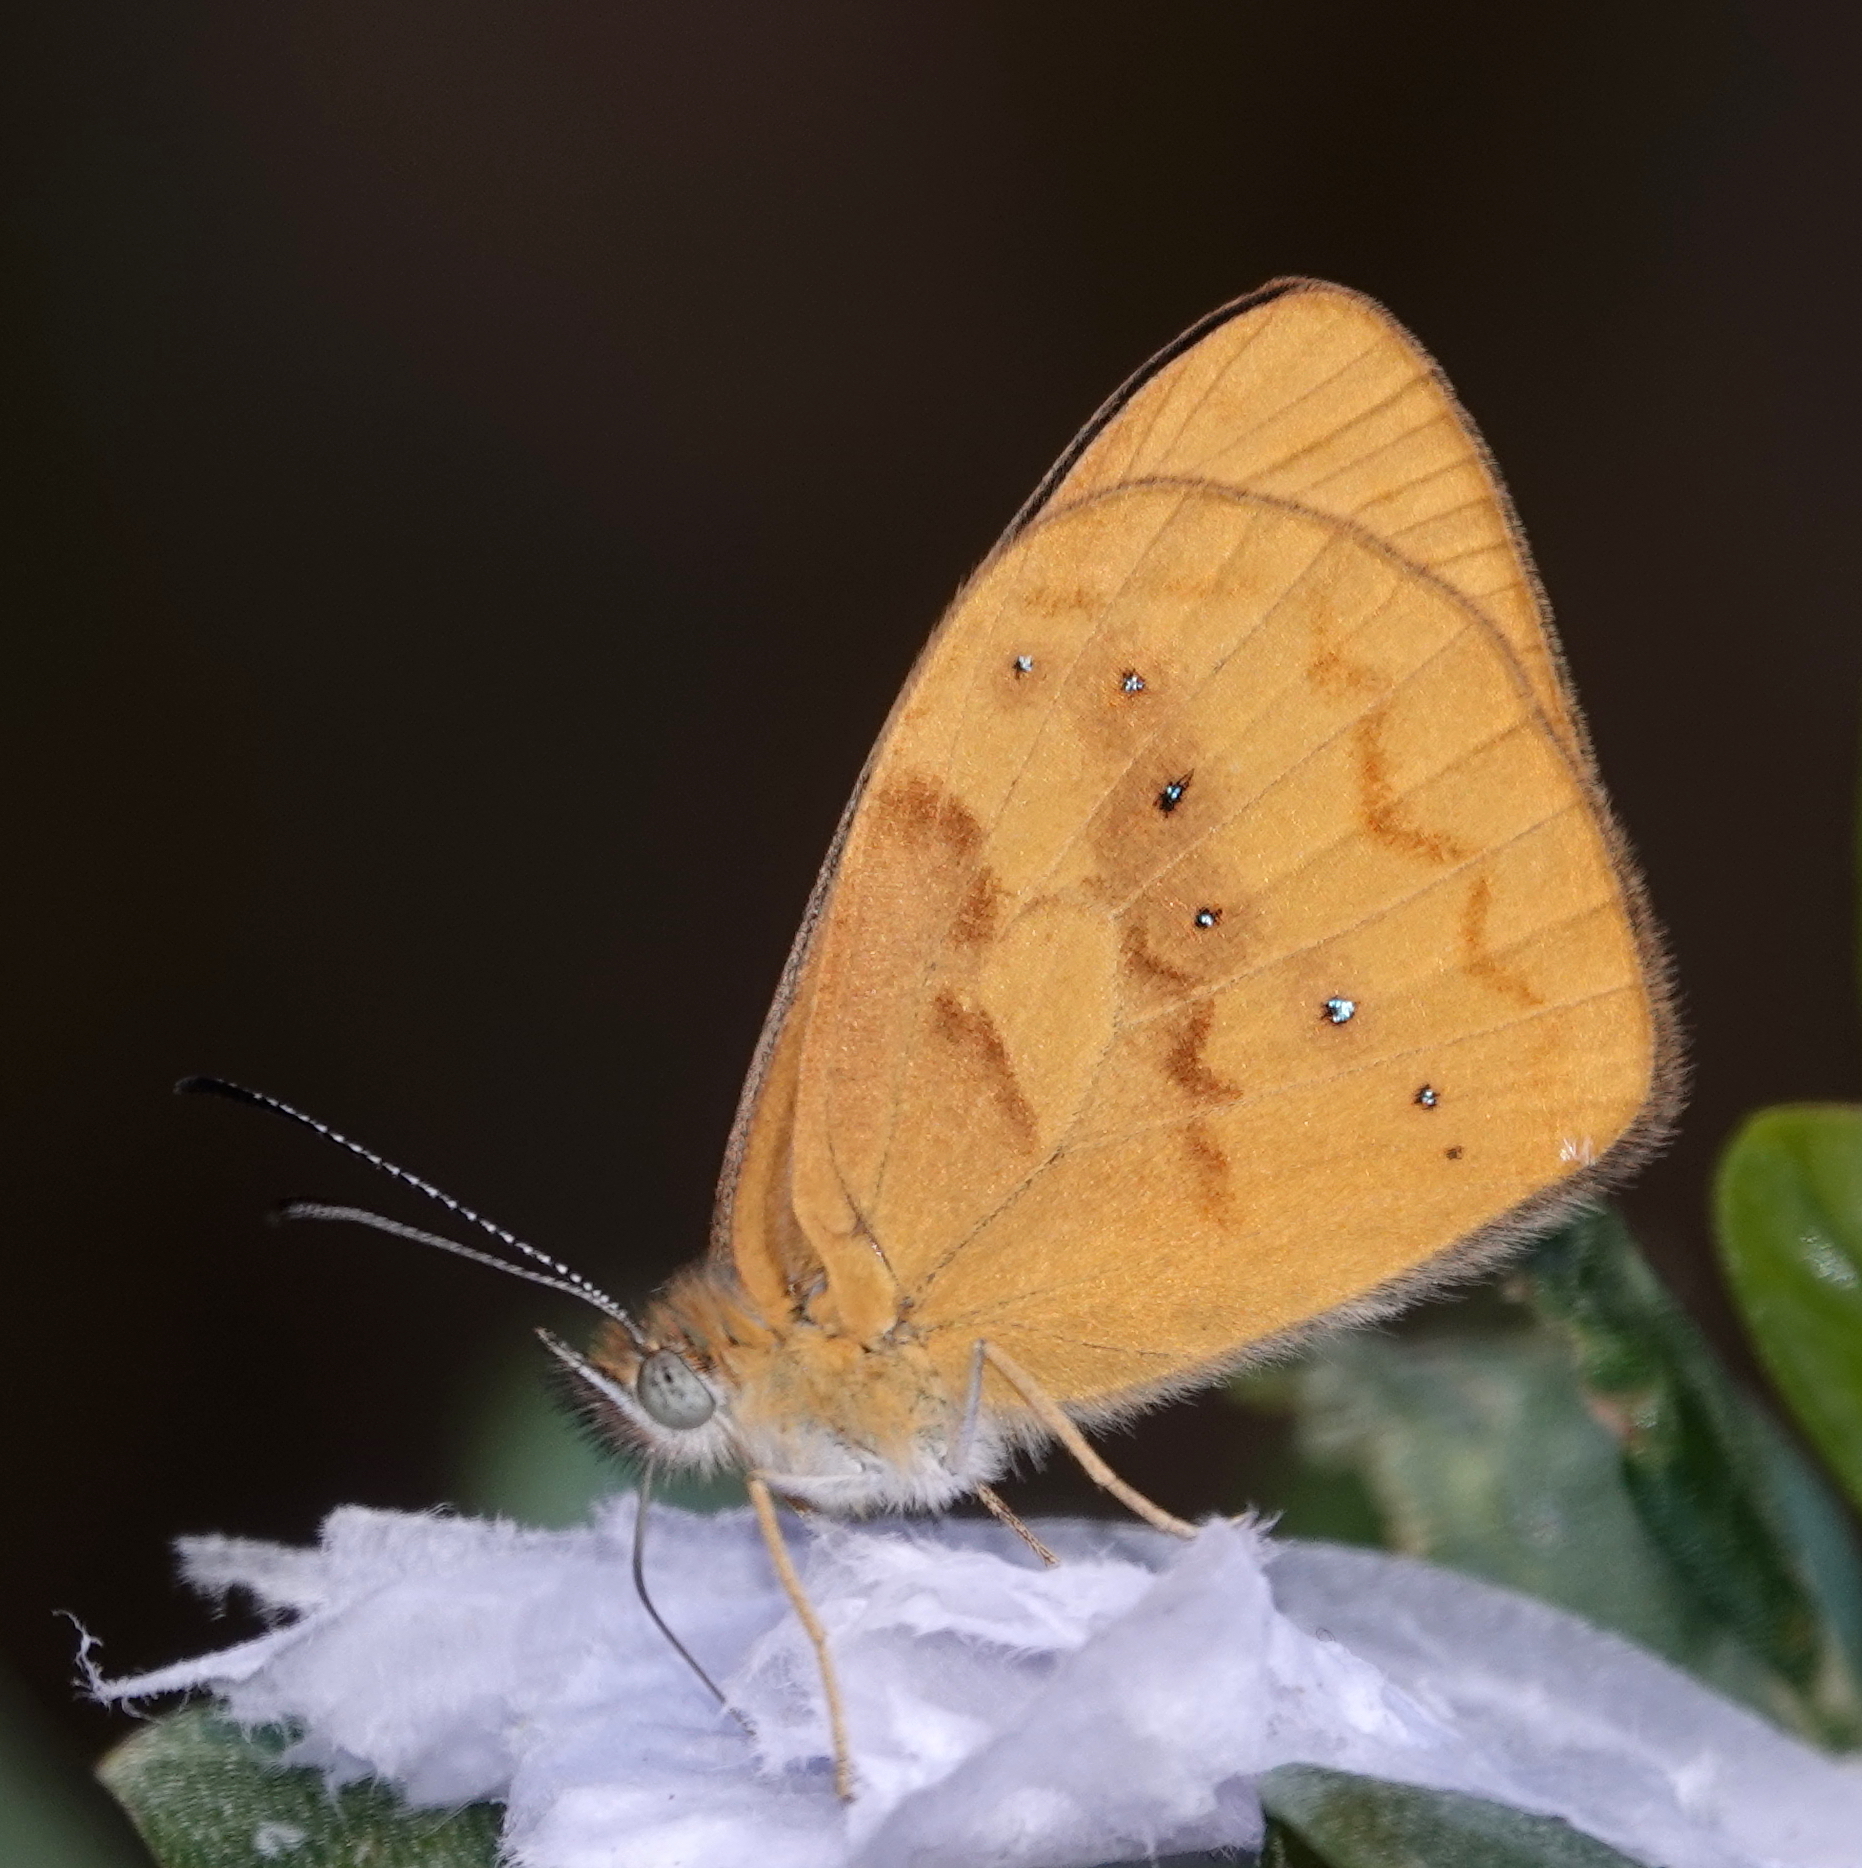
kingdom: Animalia
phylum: Arthropoda
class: Insecta
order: Lepidoptera
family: Nymphalidae
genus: Lymanopoda
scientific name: Lymanopoda caeruleata
